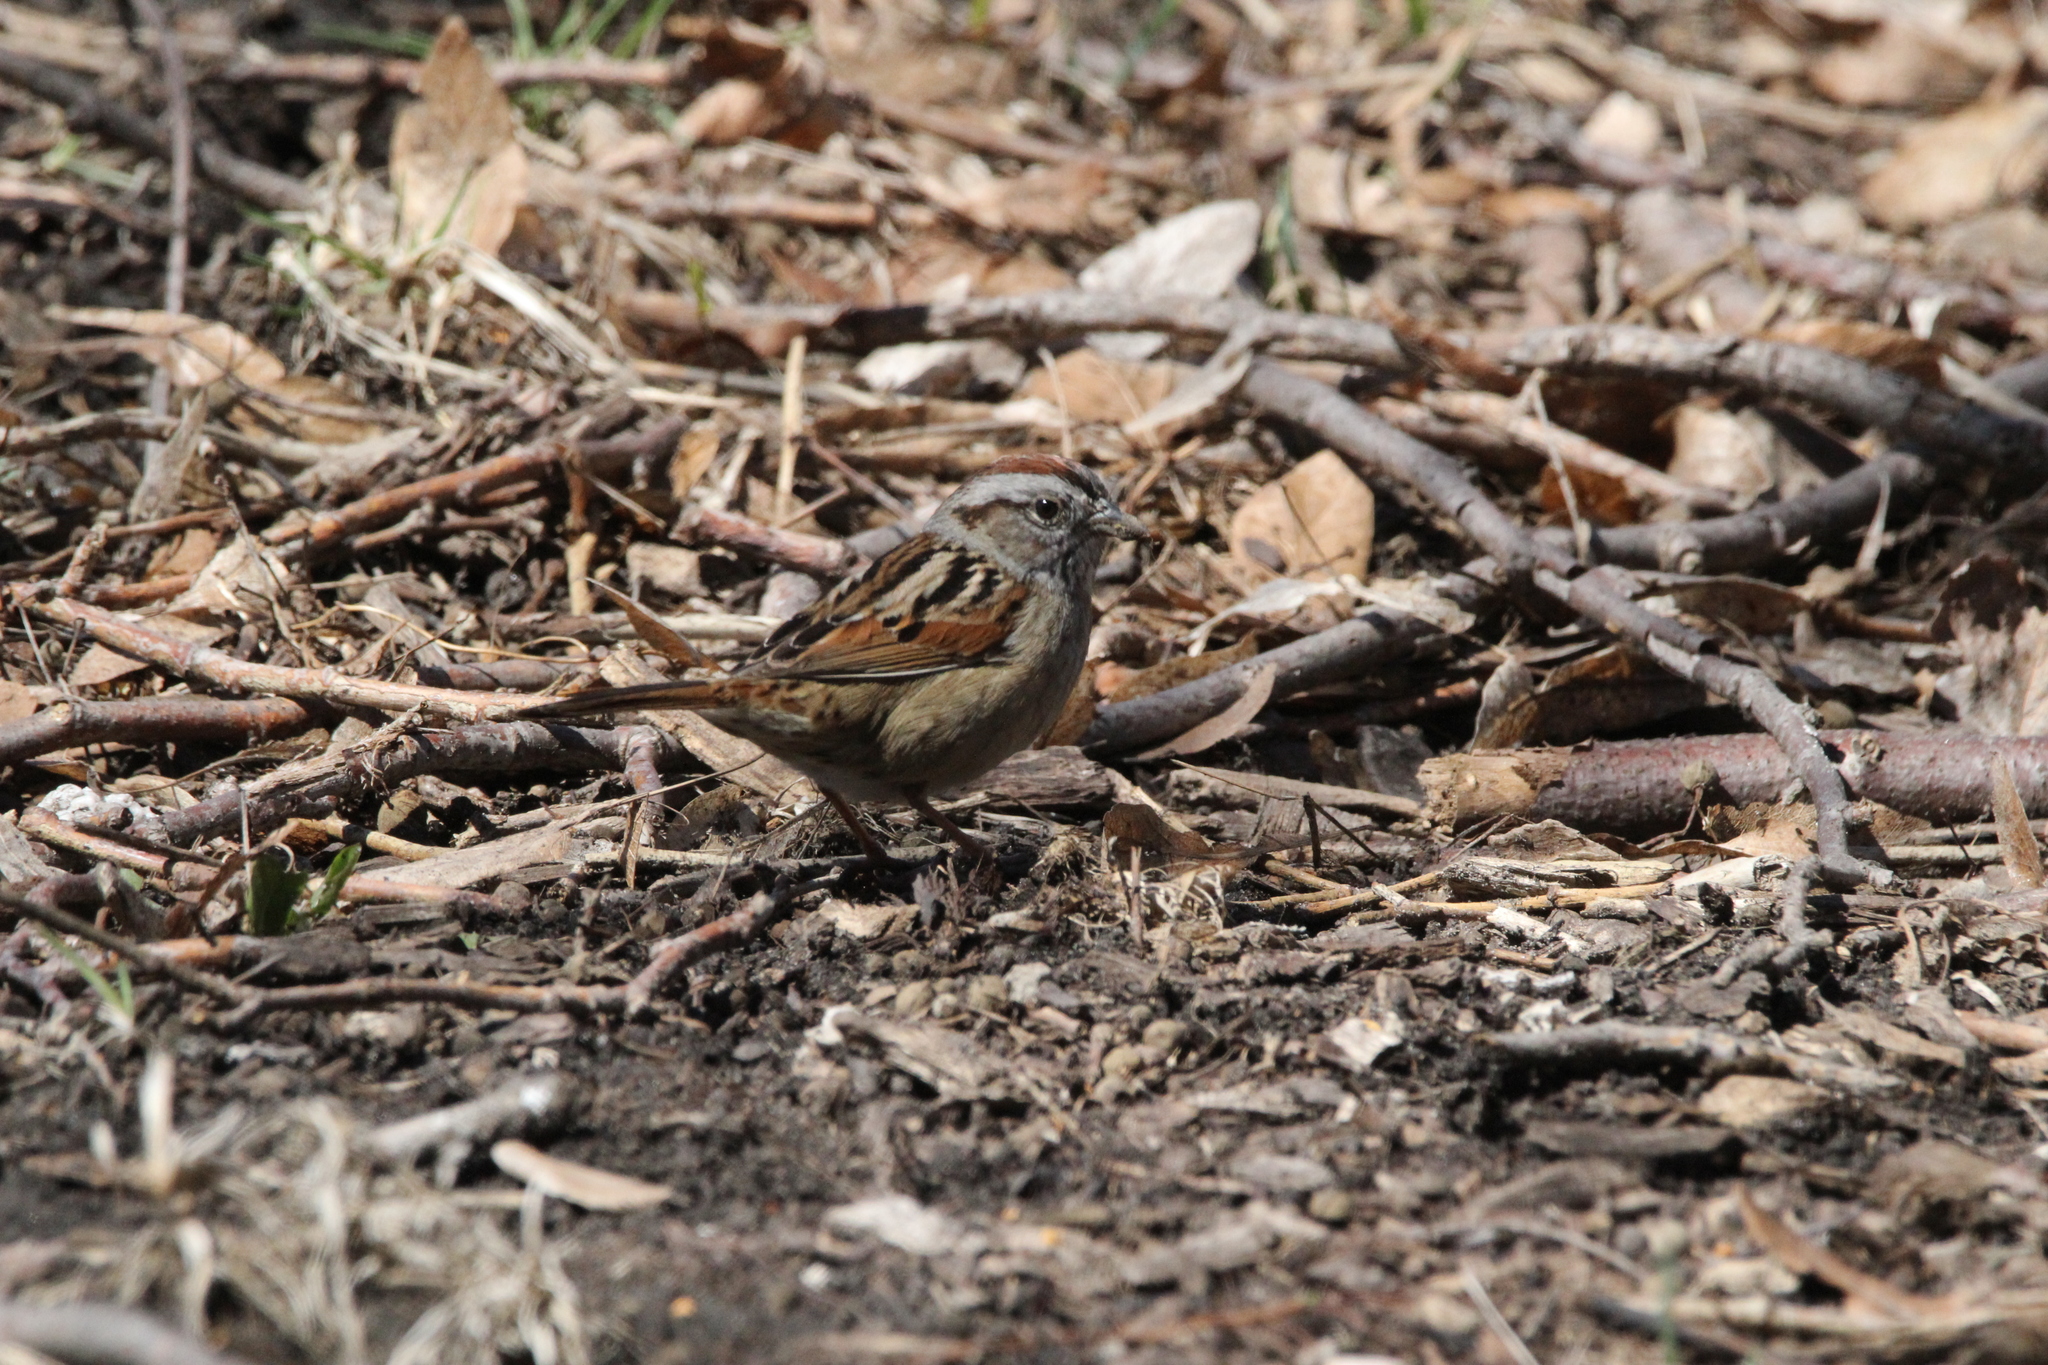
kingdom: Animalia
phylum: Chordata
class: Aves
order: Passeriformes
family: Passerellidae
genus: Melospiza
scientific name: Melospiza georgiana
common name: Swamp sparrow
